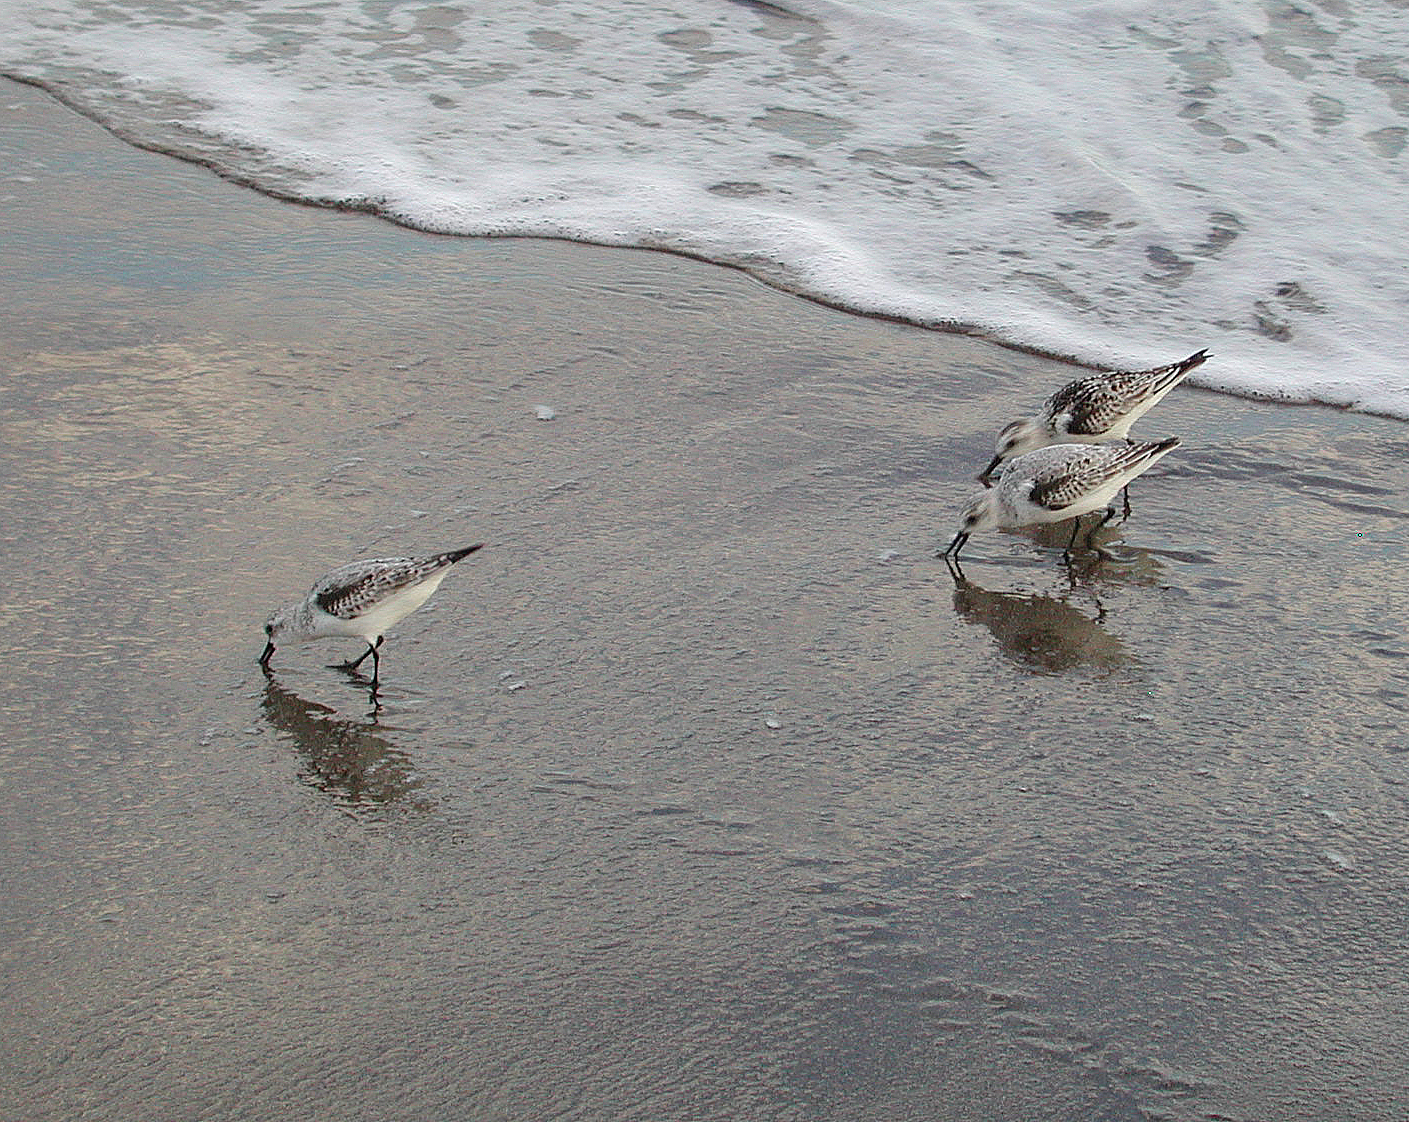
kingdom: Animalia
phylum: Chordata
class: Aves
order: Charadriiformes
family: Scolopacidae
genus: Calidris
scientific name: Calidris alba
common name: Sanderling
